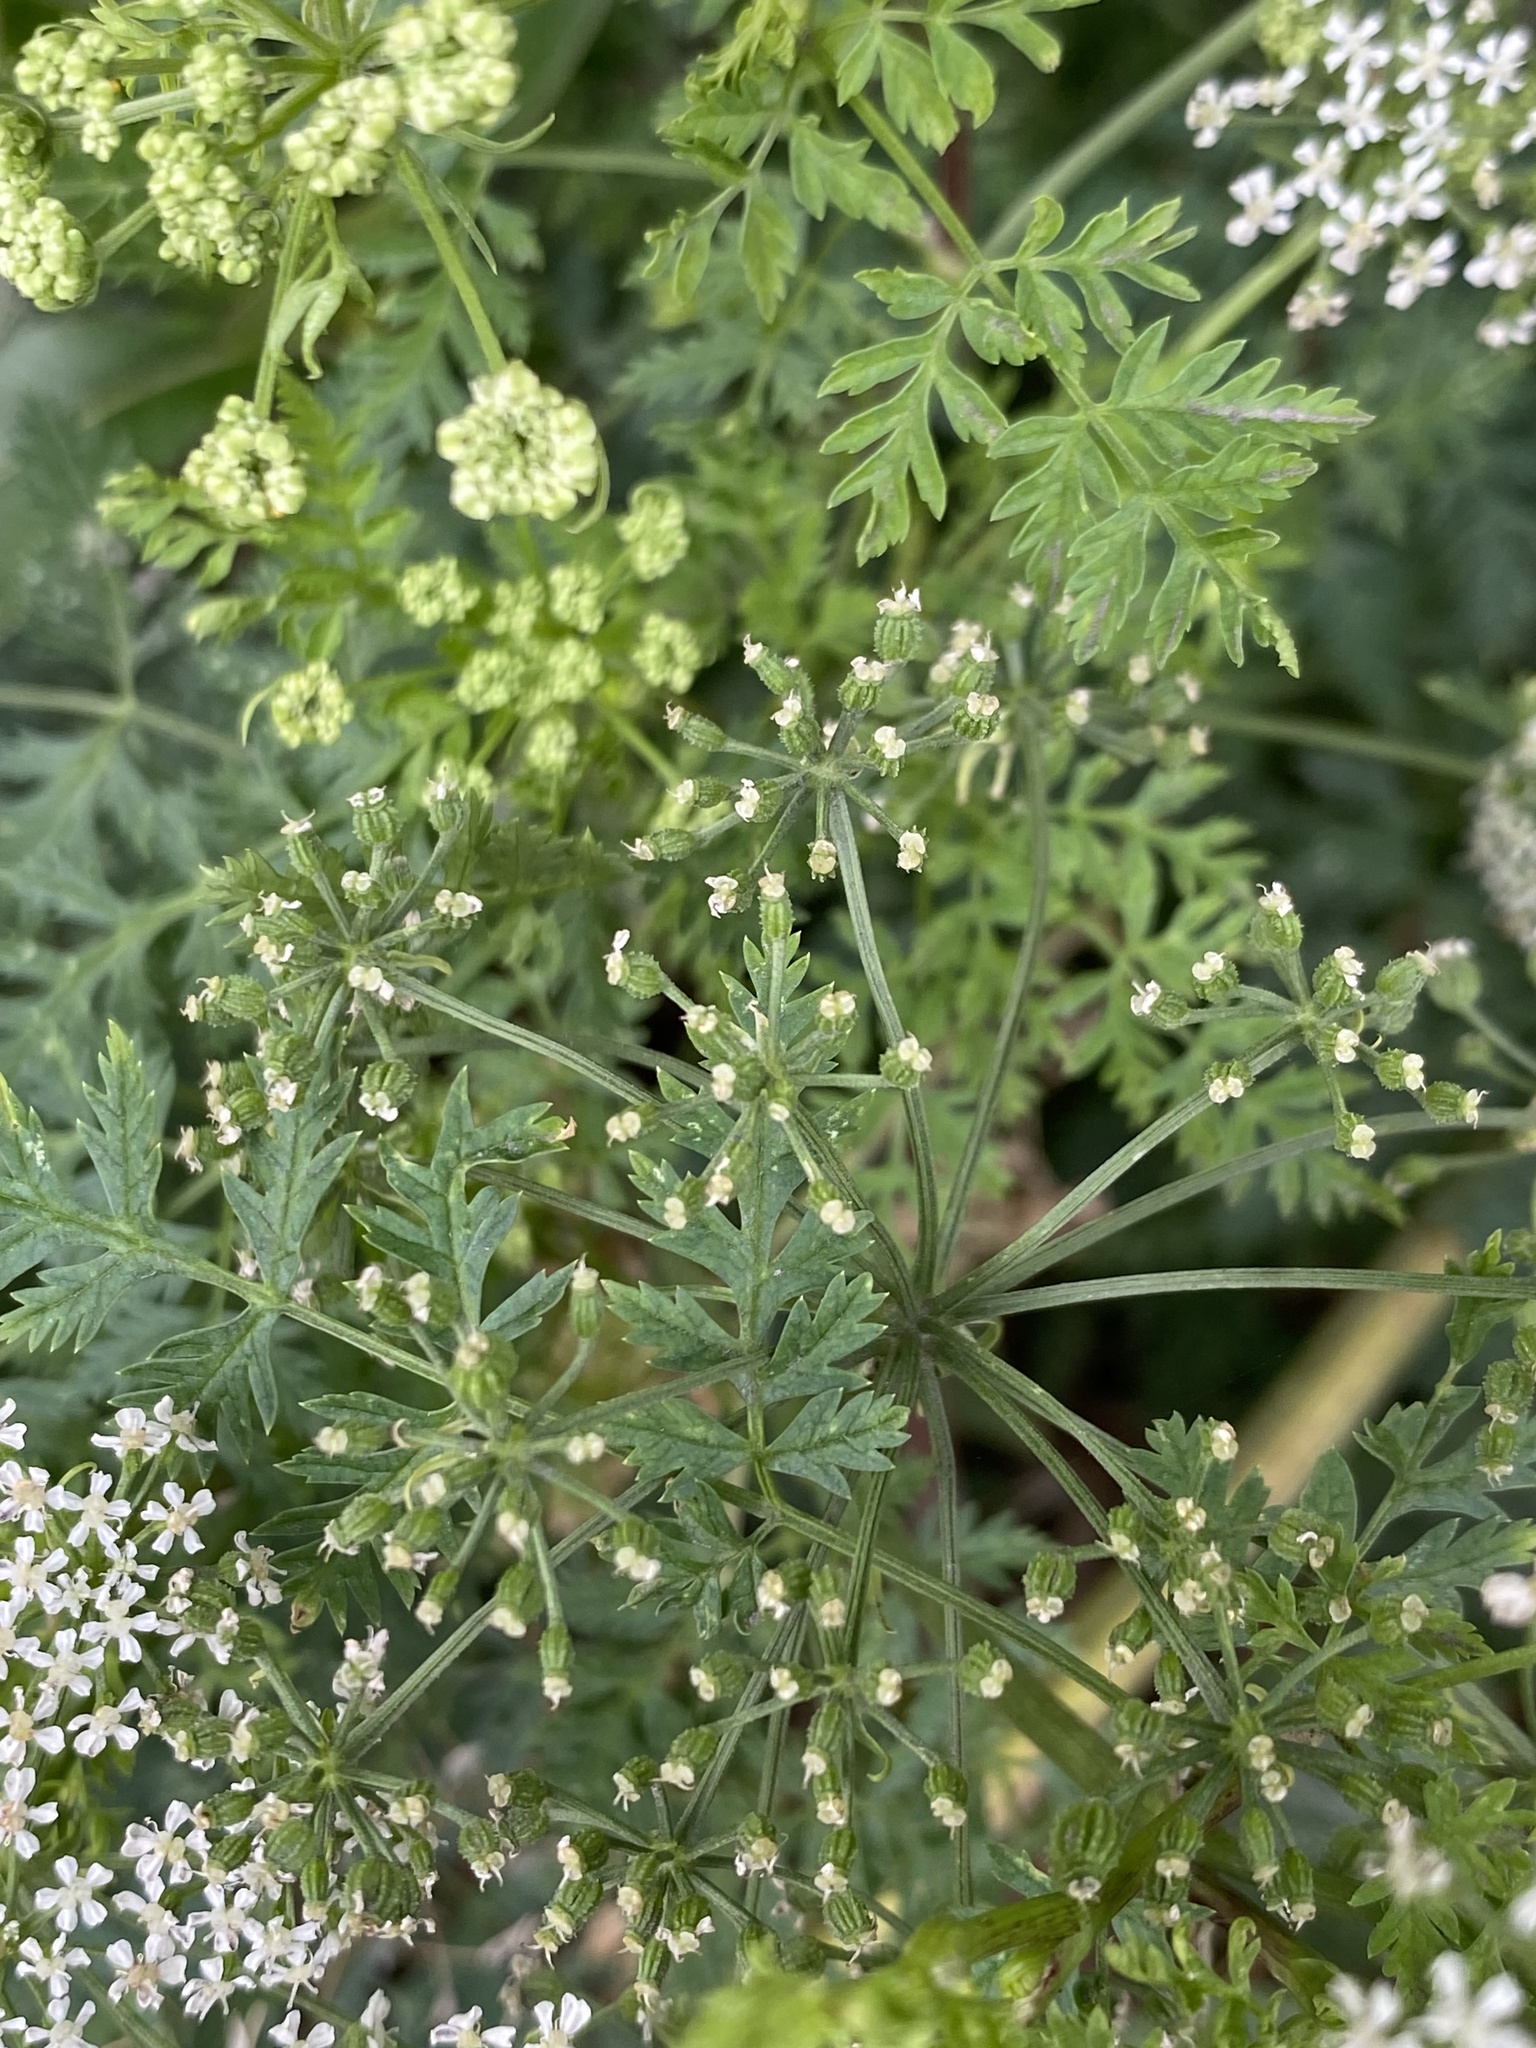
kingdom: Plantae
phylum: Tracheophyta
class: Magnoliopsida
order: Apiales
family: Apiaceae
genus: Conium
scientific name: Conium maculatum
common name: Hemlock
